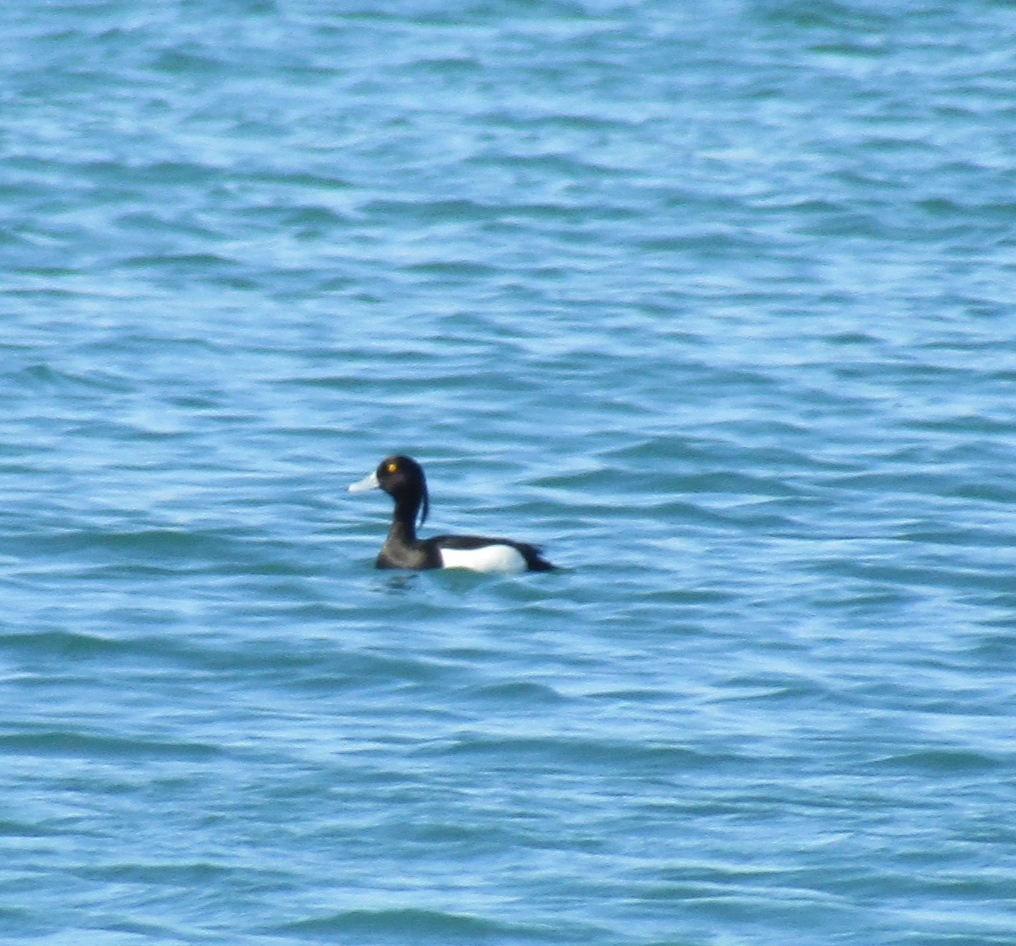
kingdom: Animalia
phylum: Chordata
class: Aves
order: Anseriformes
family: Anatidae
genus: Aythya
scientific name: Aythya fuligula
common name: Tufted duck
